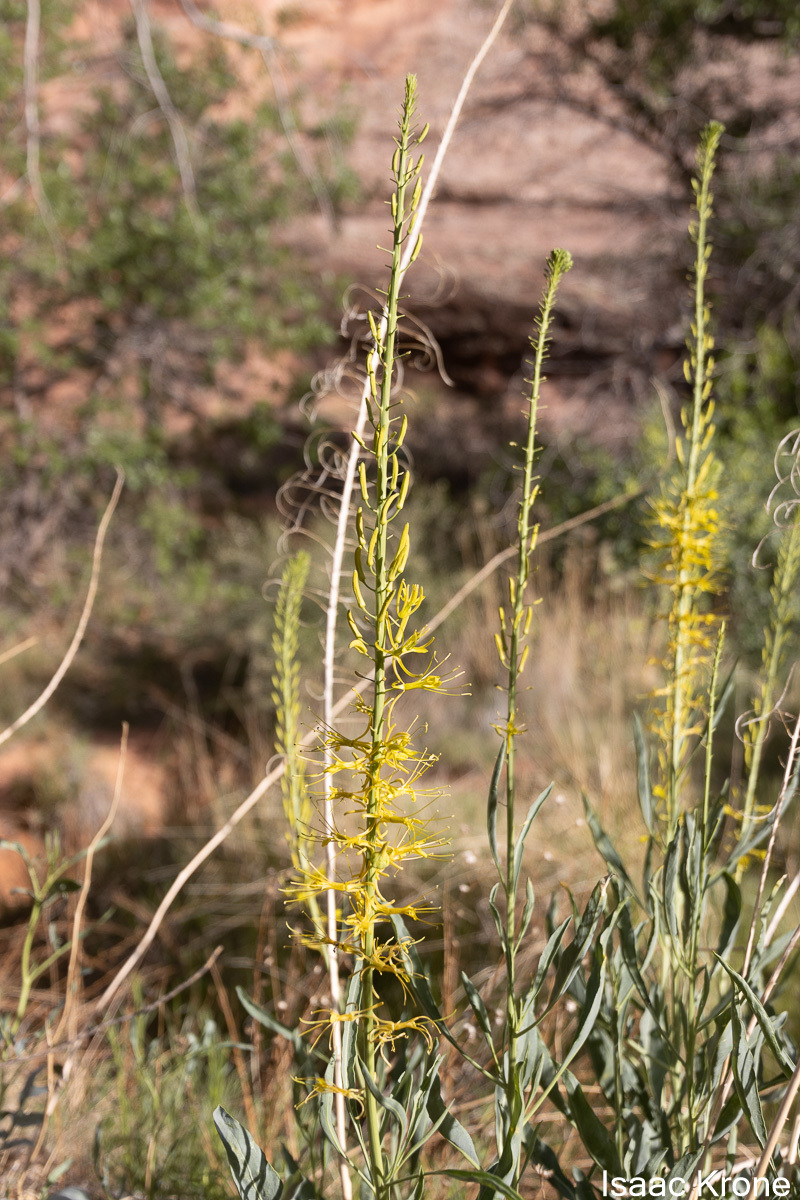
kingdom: Plantae
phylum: Tracheophyta
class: Magnoliopsida
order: Brassicales
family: Brassicaceae
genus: Stanleya
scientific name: Stanleya pinnata
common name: Prince's-plume
